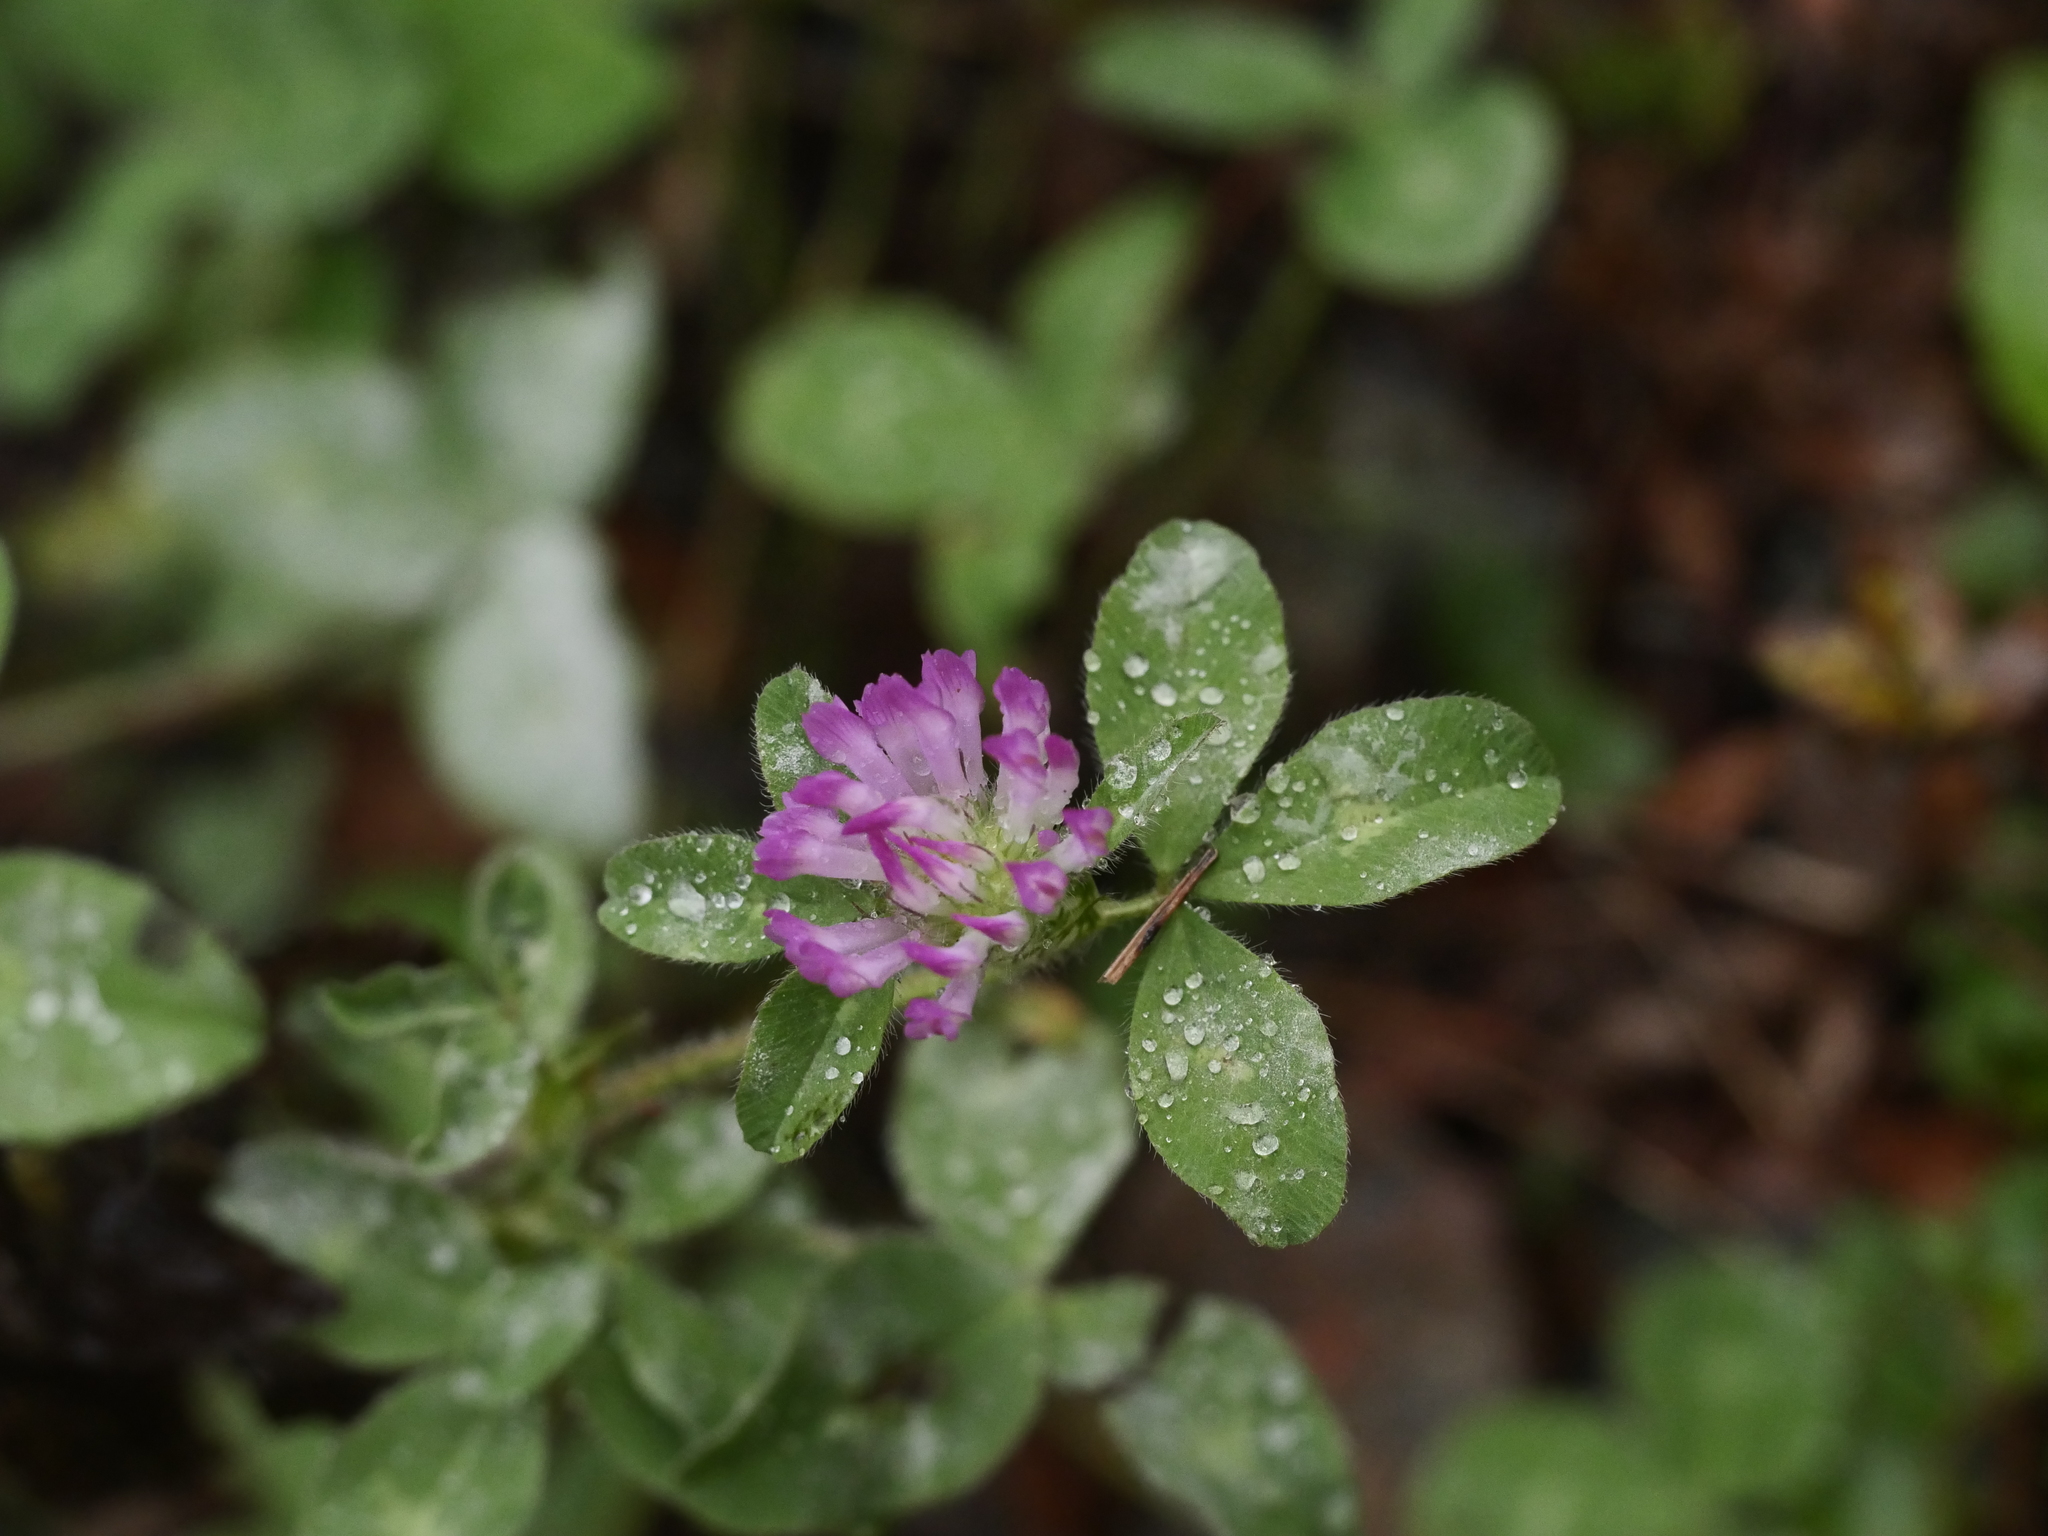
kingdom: Plantae
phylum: Tracheophyta
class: Magnoliopsida
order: Fabales
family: Fabaceae
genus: Trifolium
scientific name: Trifolium pratense
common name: Red clover
